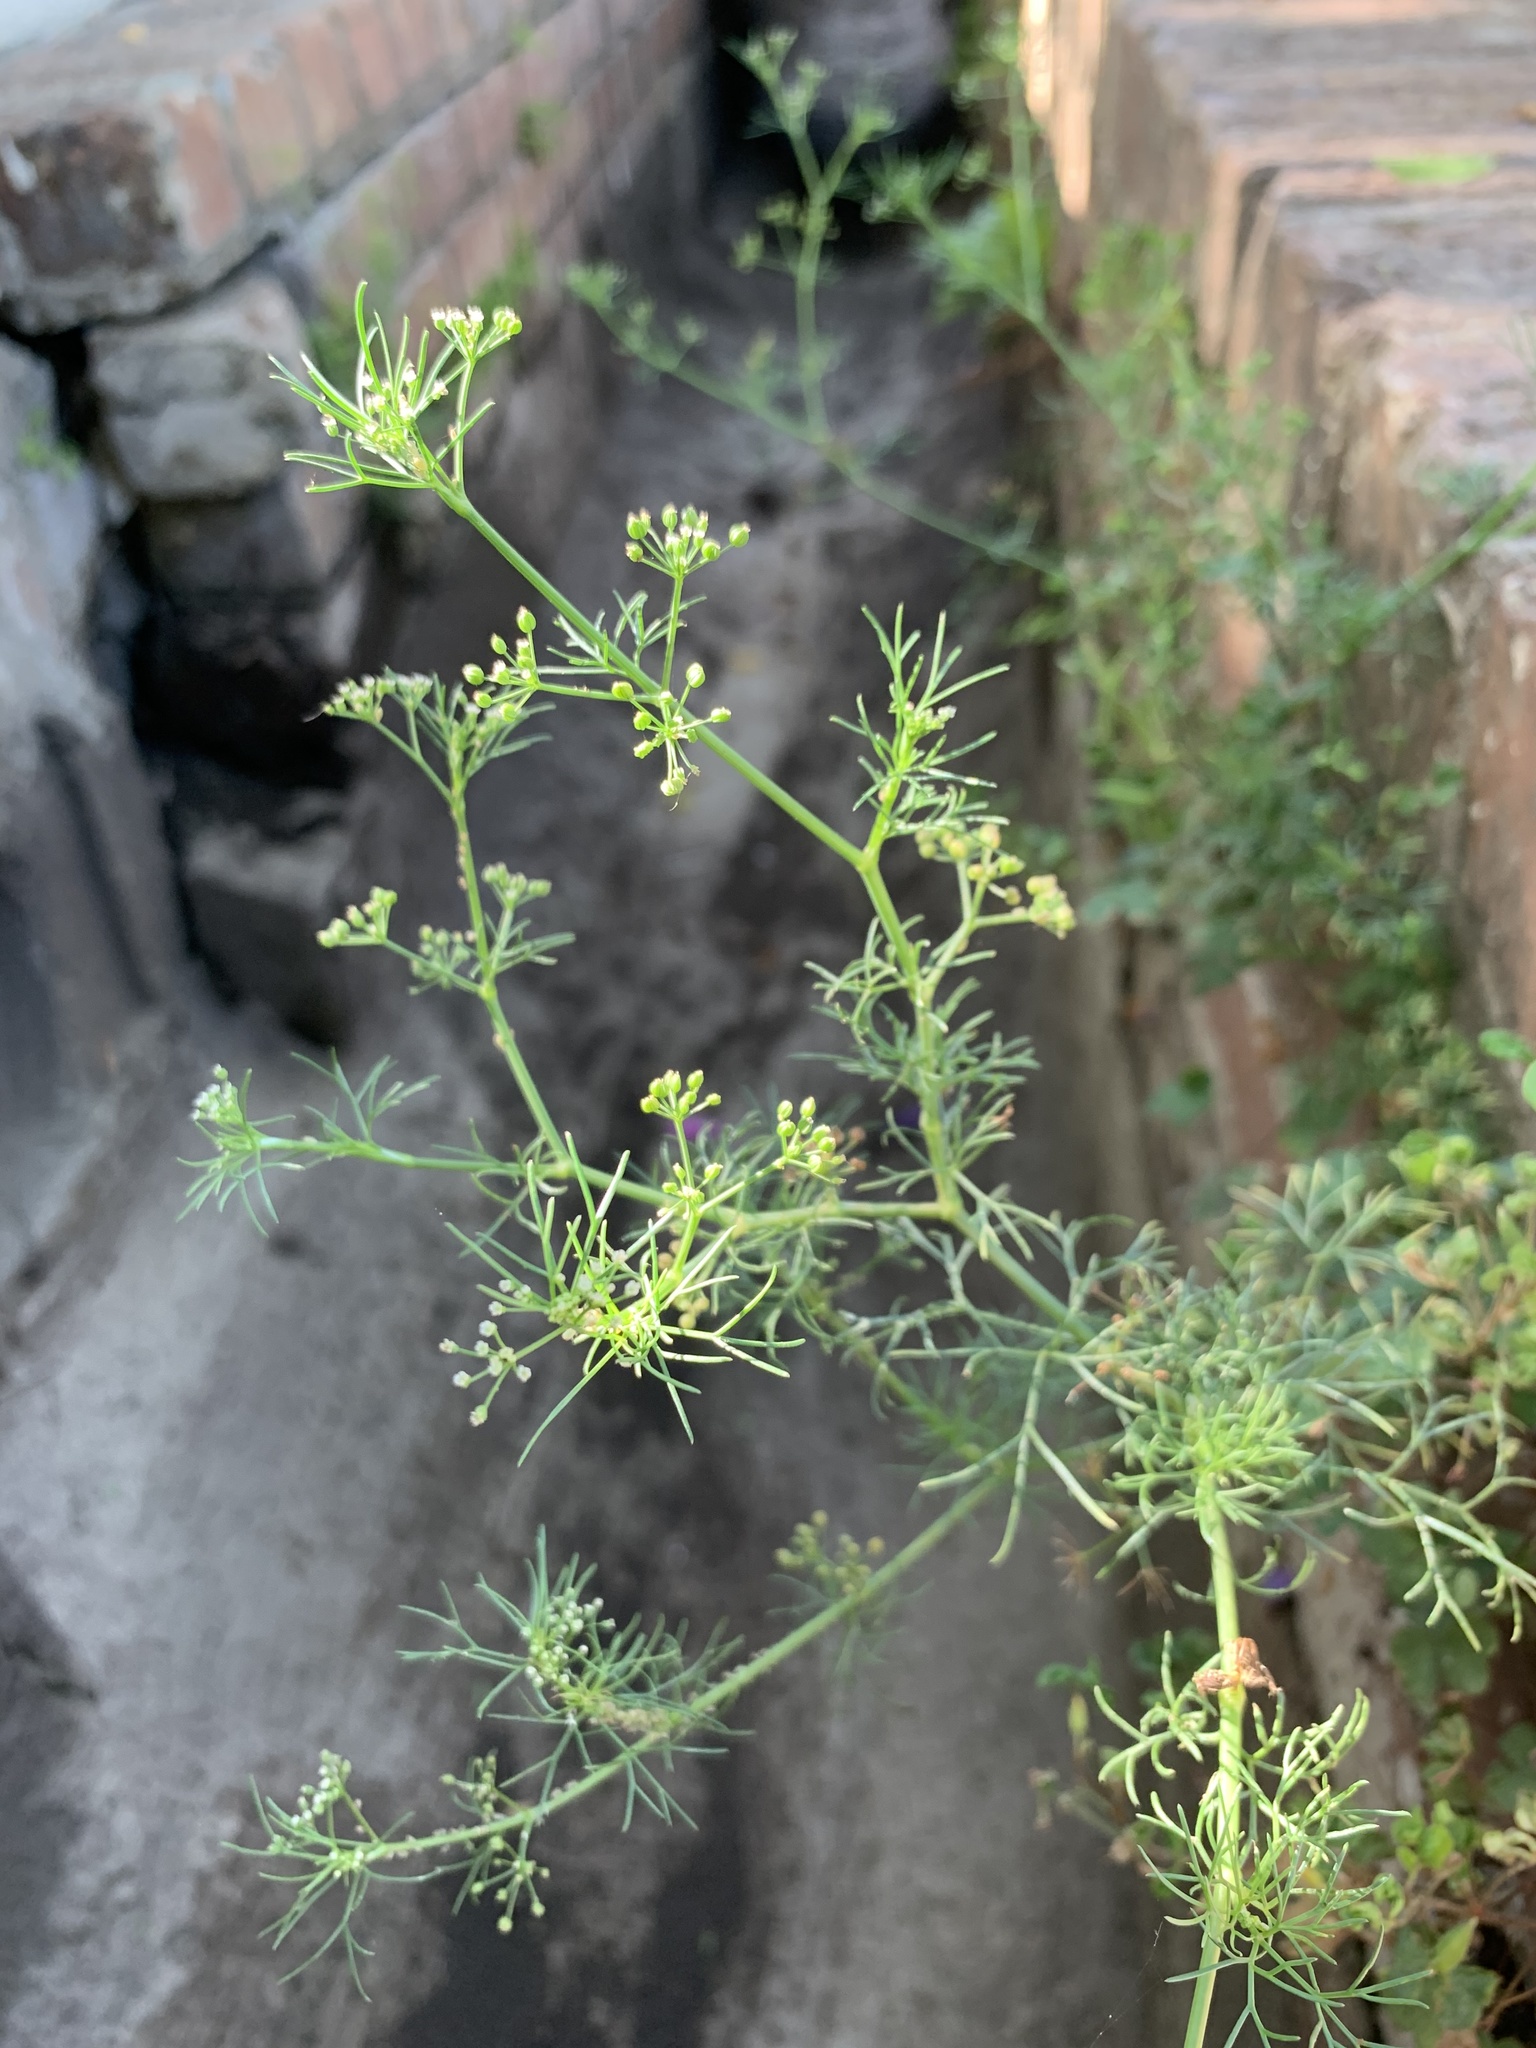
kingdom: Plantae
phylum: Tracheophyta
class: Magnoliopsida
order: Apiales
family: Apiaceae
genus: Cyclospermum
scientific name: Cyclospermum leptophyllum
